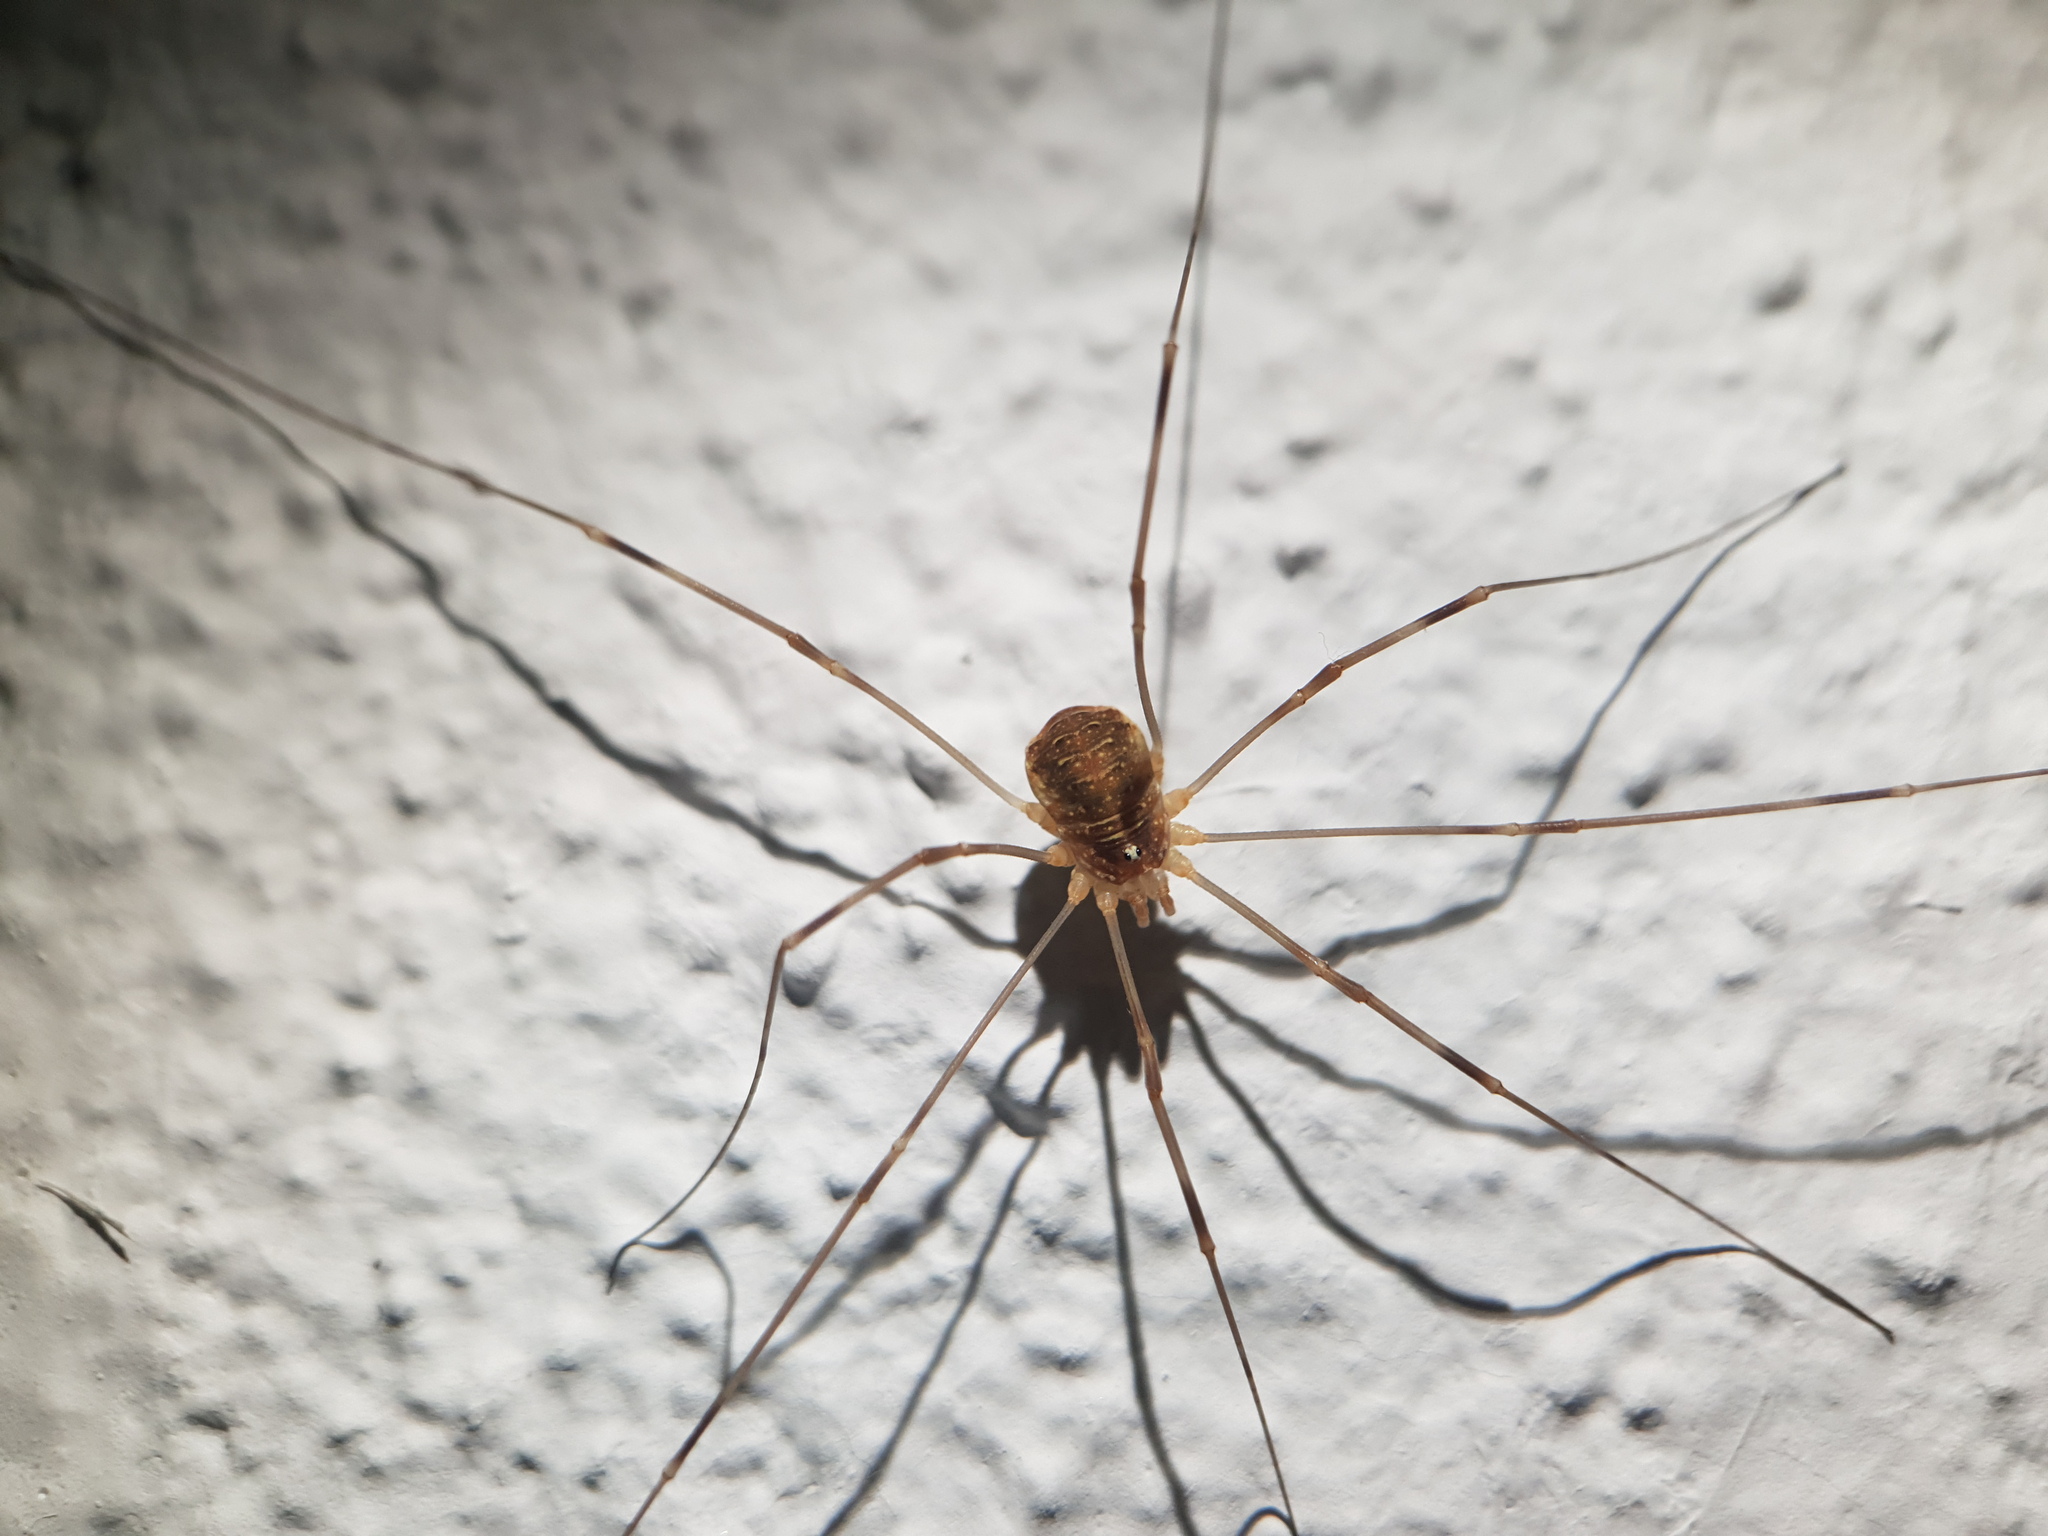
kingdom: Animalia
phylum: Arthropoda
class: Arachnida
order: Opiliones
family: Phalangiidae
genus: Opilio
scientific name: Opilio canestrinii
